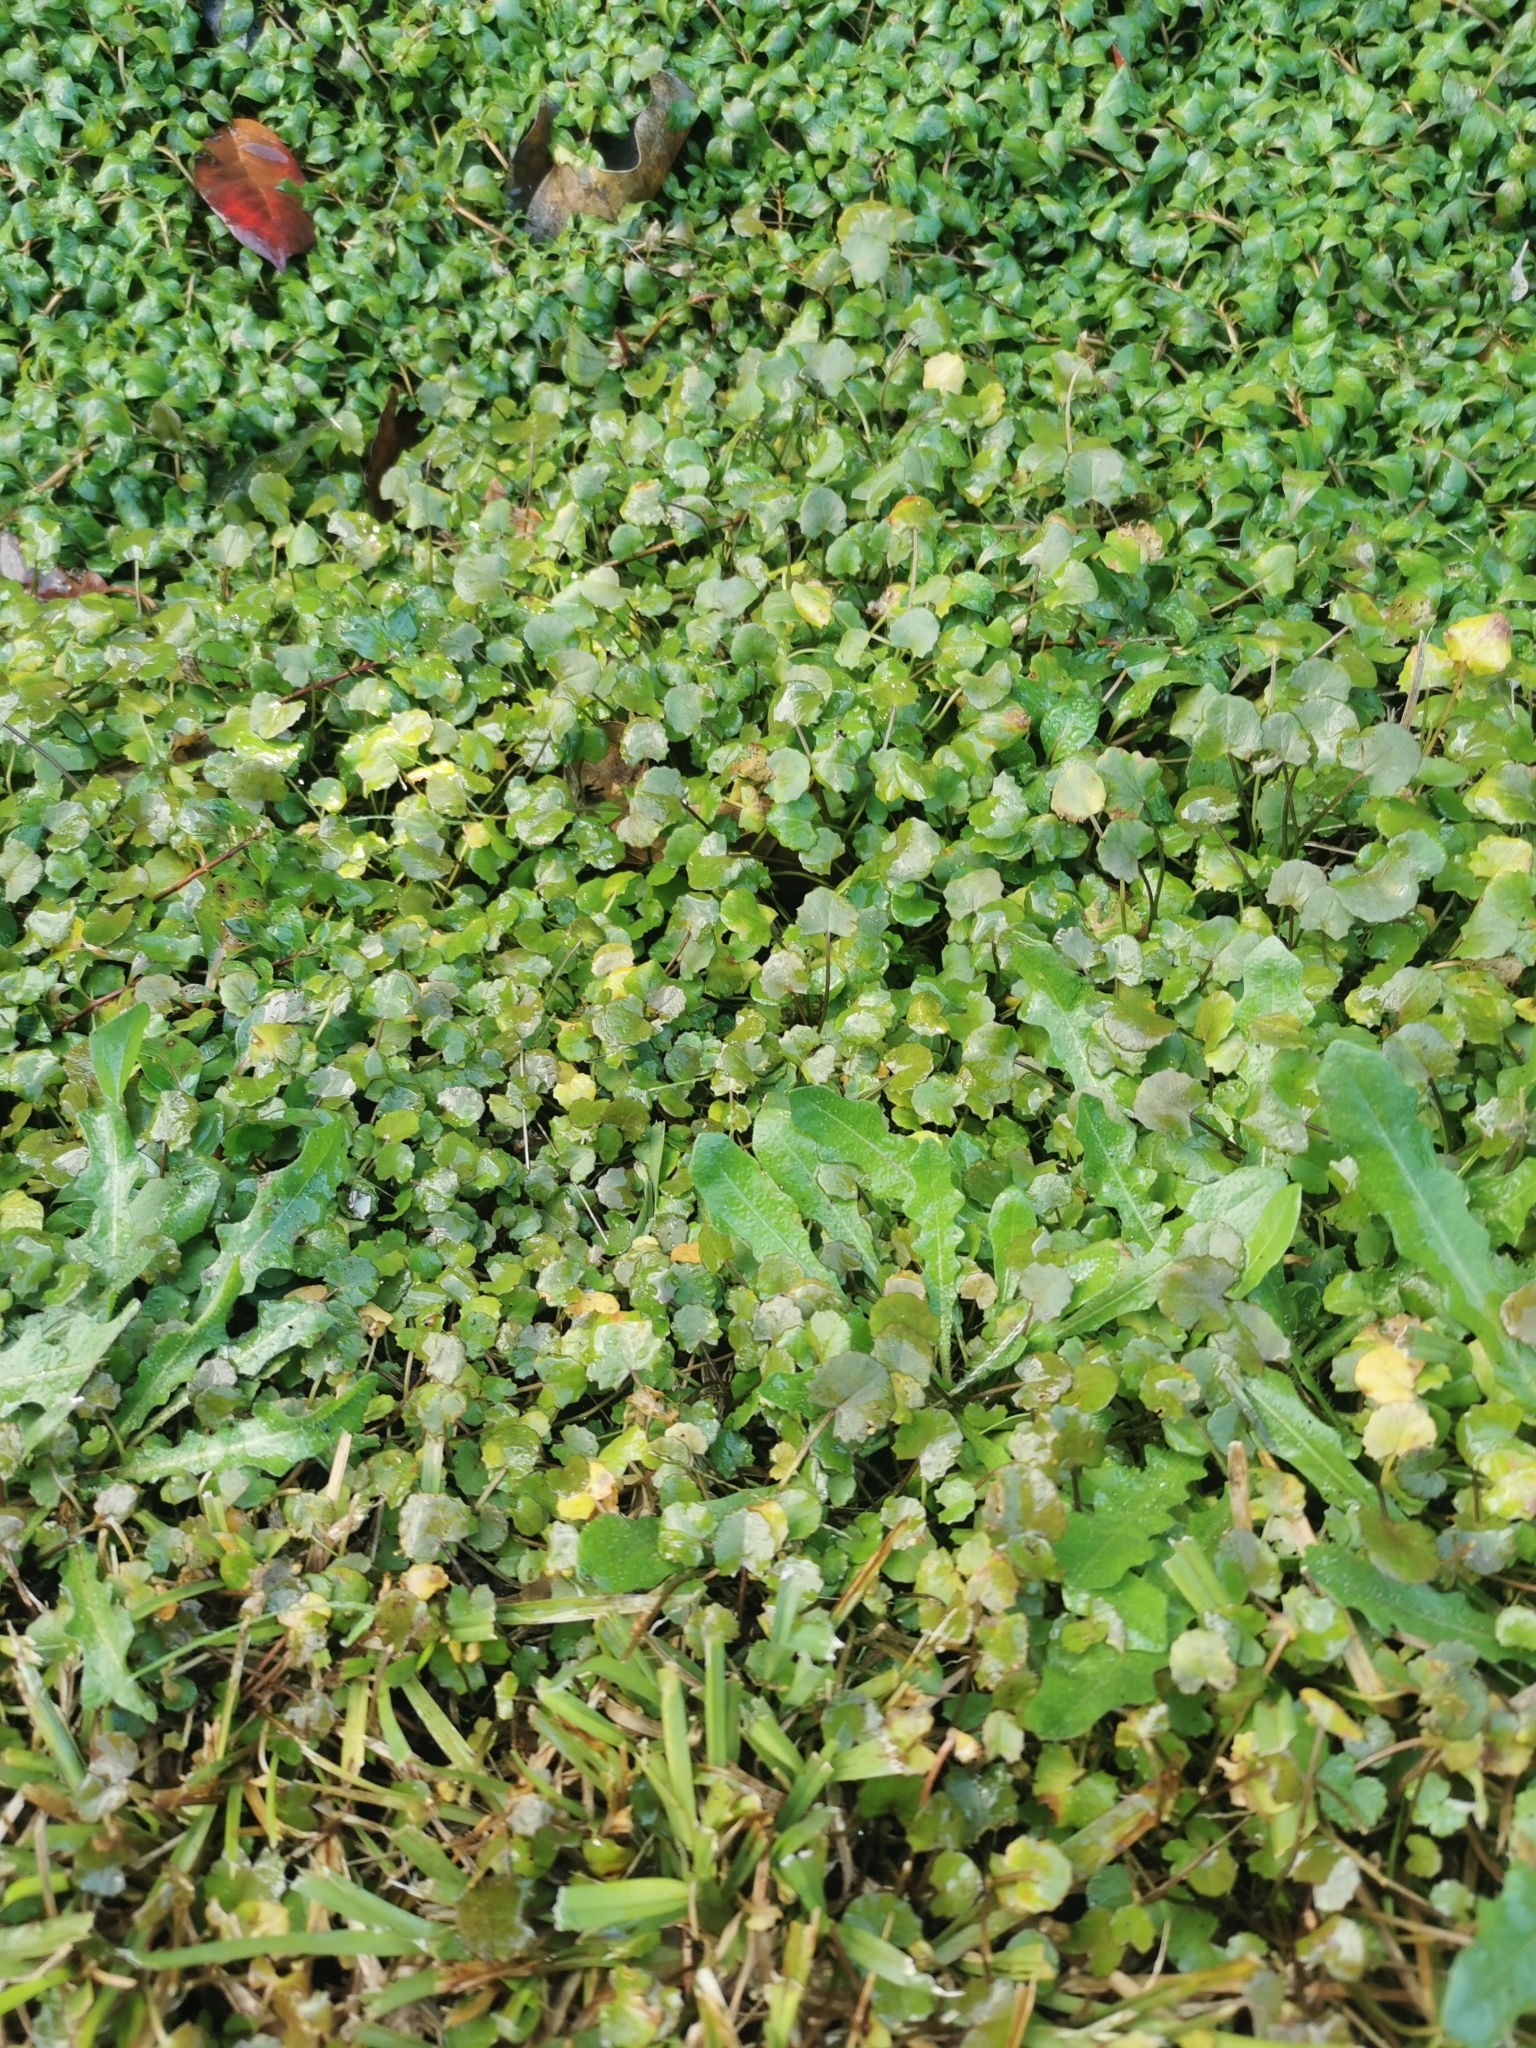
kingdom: Plantae
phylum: Tracheophyta
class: Magnoliopsida
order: Apiales
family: Apiaceae
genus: Centella
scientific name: Centella uniflora
